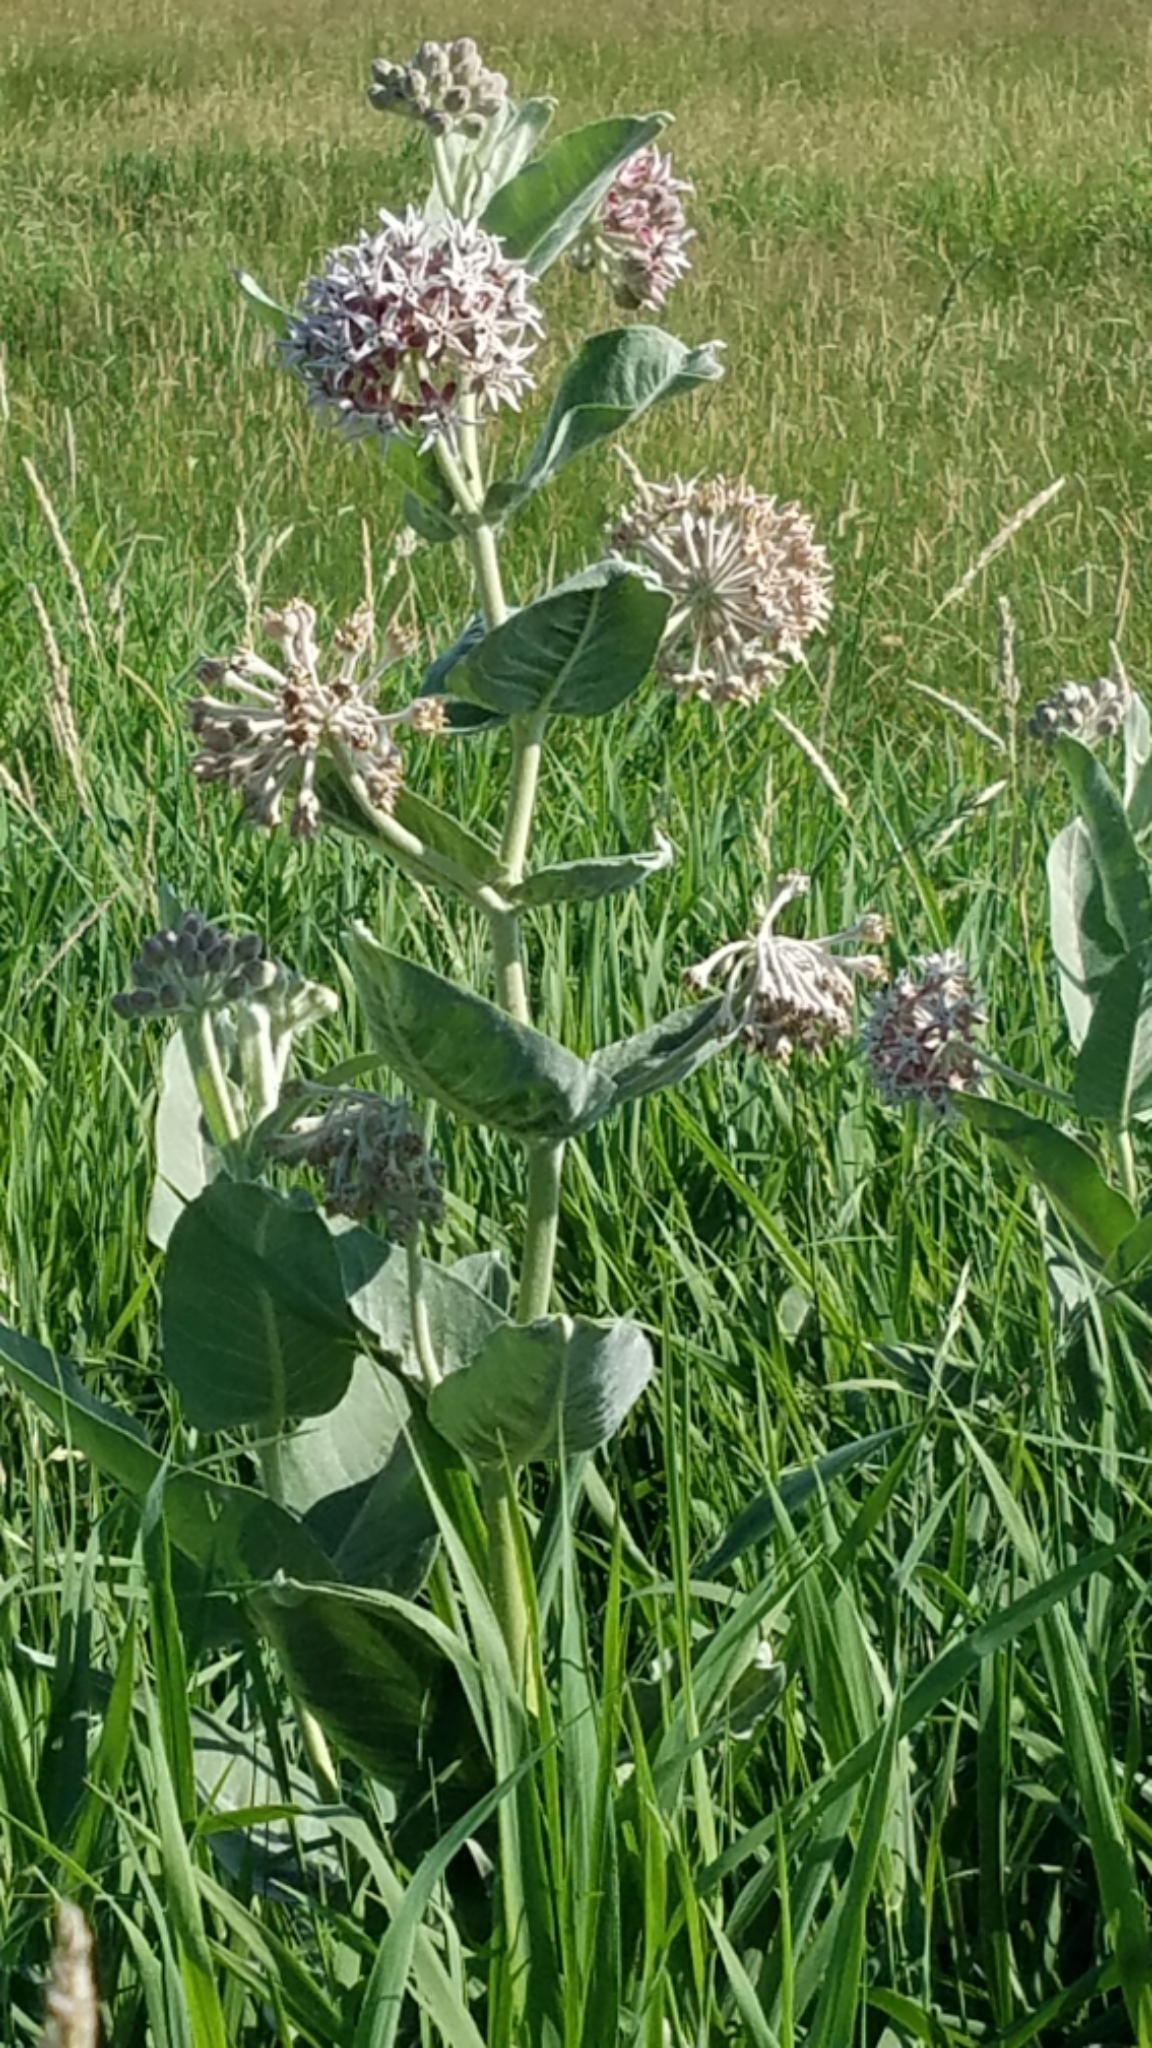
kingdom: Plantae
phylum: Tracheophyta
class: Magnoliopsida
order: Gentianales
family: Apocynaceae
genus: Asclepias
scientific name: Asclepias speciosa
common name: Showy milkweed
